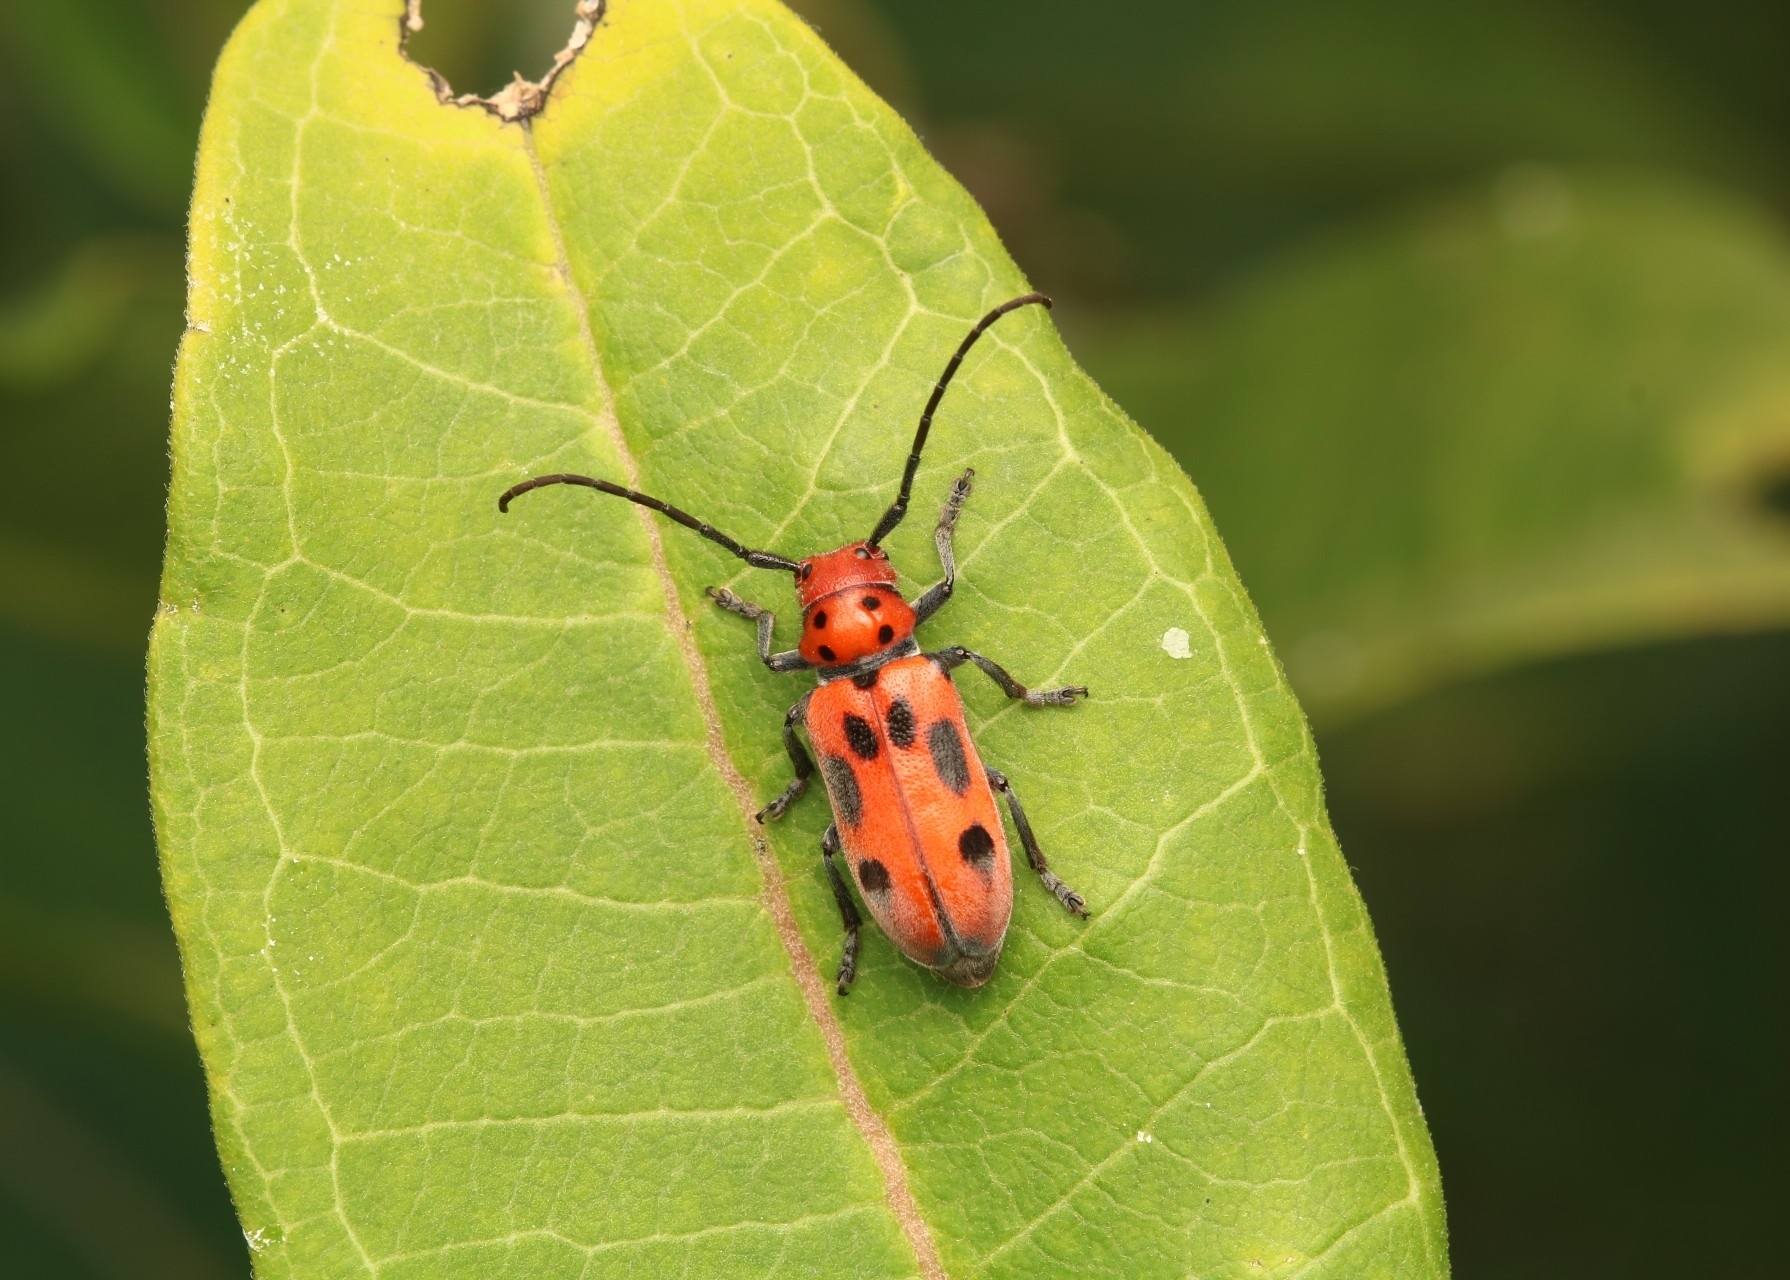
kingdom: Animalia
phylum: Arthropoda
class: Insecta
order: Coleoptera
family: Cerambycidae
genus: Tetraopes
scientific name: Tetraopes tetrophthalmus
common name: Red milkweed beetle
